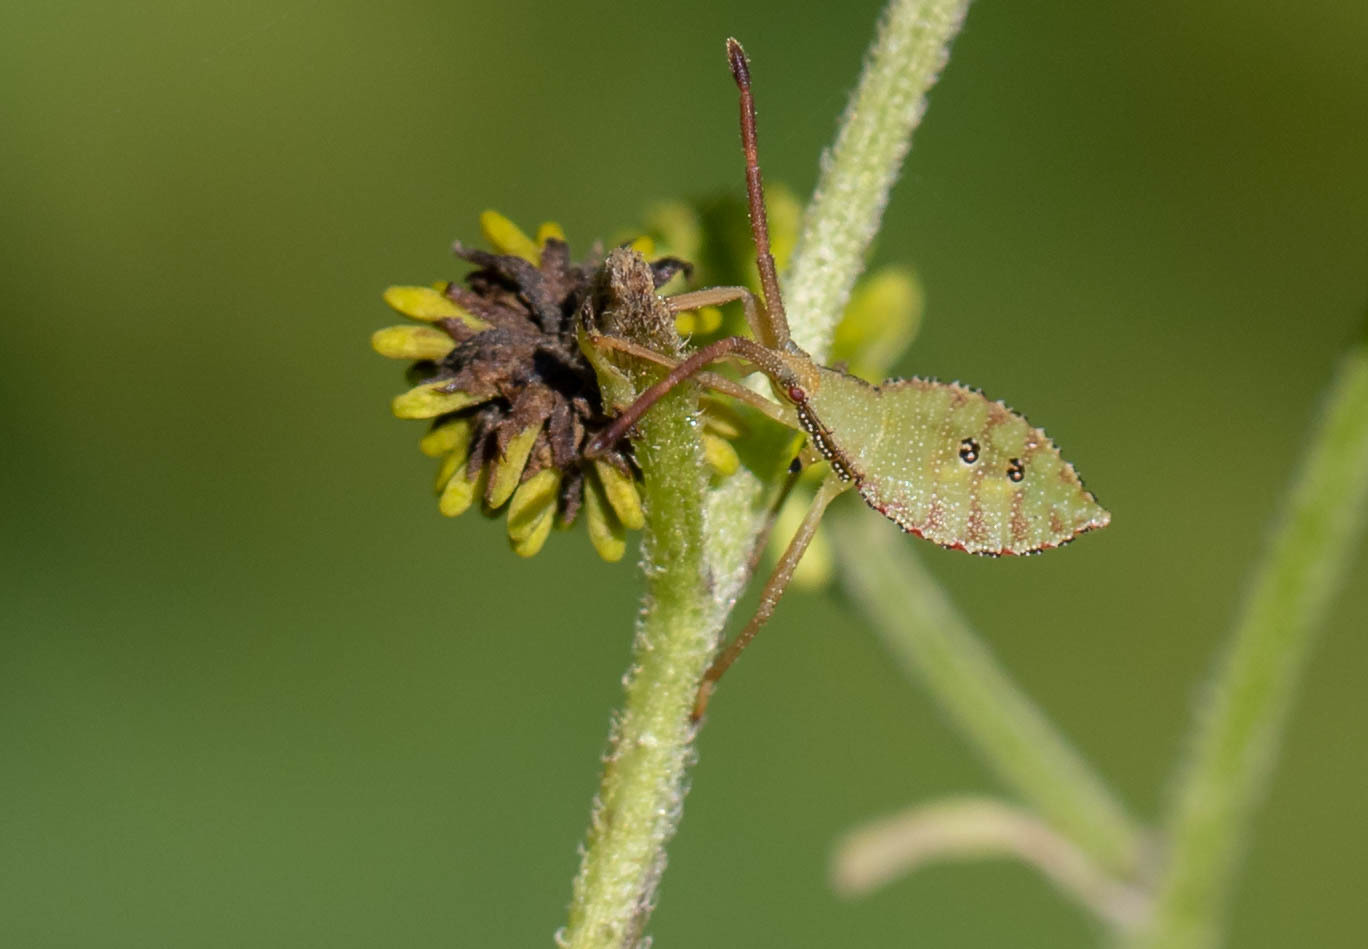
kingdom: Animalia
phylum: Arthropoda
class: Insecta
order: Hemiptera
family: Coreidae
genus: Piezogaster
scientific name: Piezogaster calcarator
